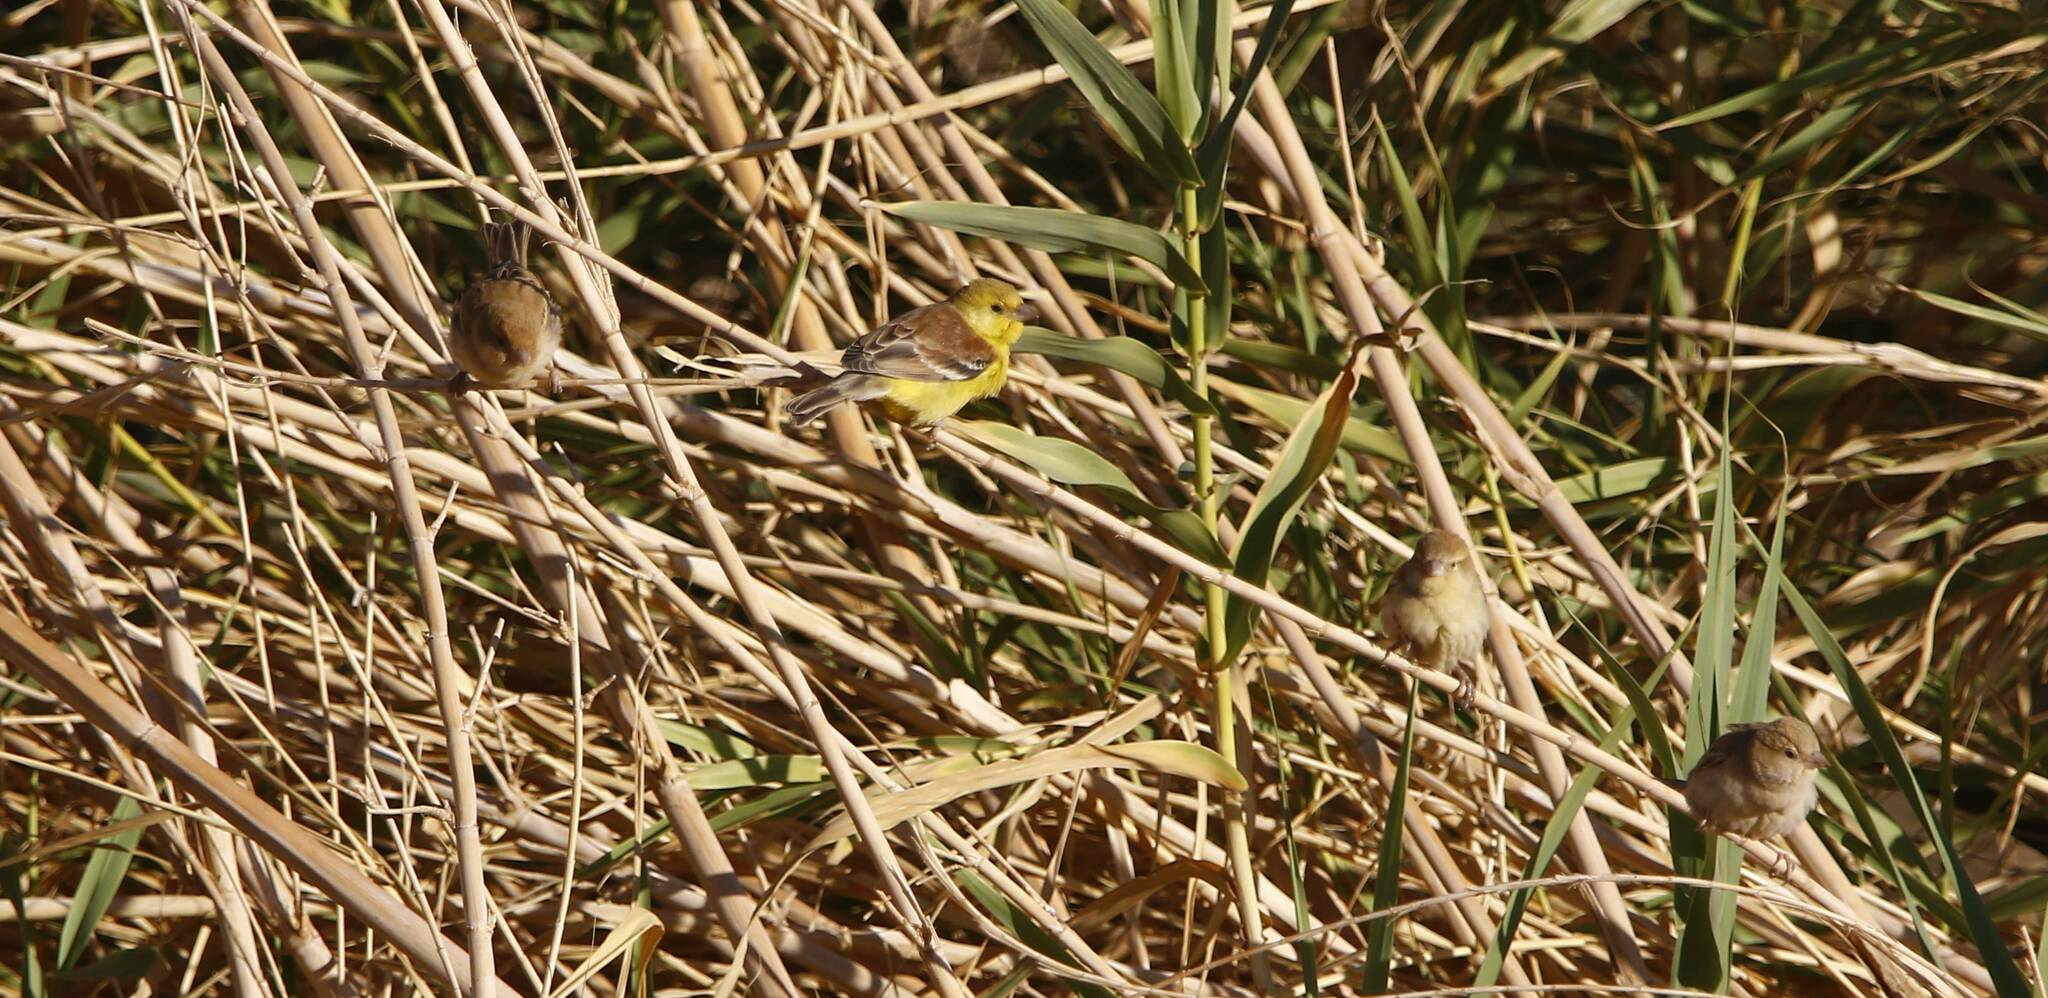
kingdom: Animalia
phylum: Chordata
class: Aves
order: Passeriformes
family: Passeridae
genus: Passer
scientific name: Passer luteus
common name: Sudan golden sparrow
